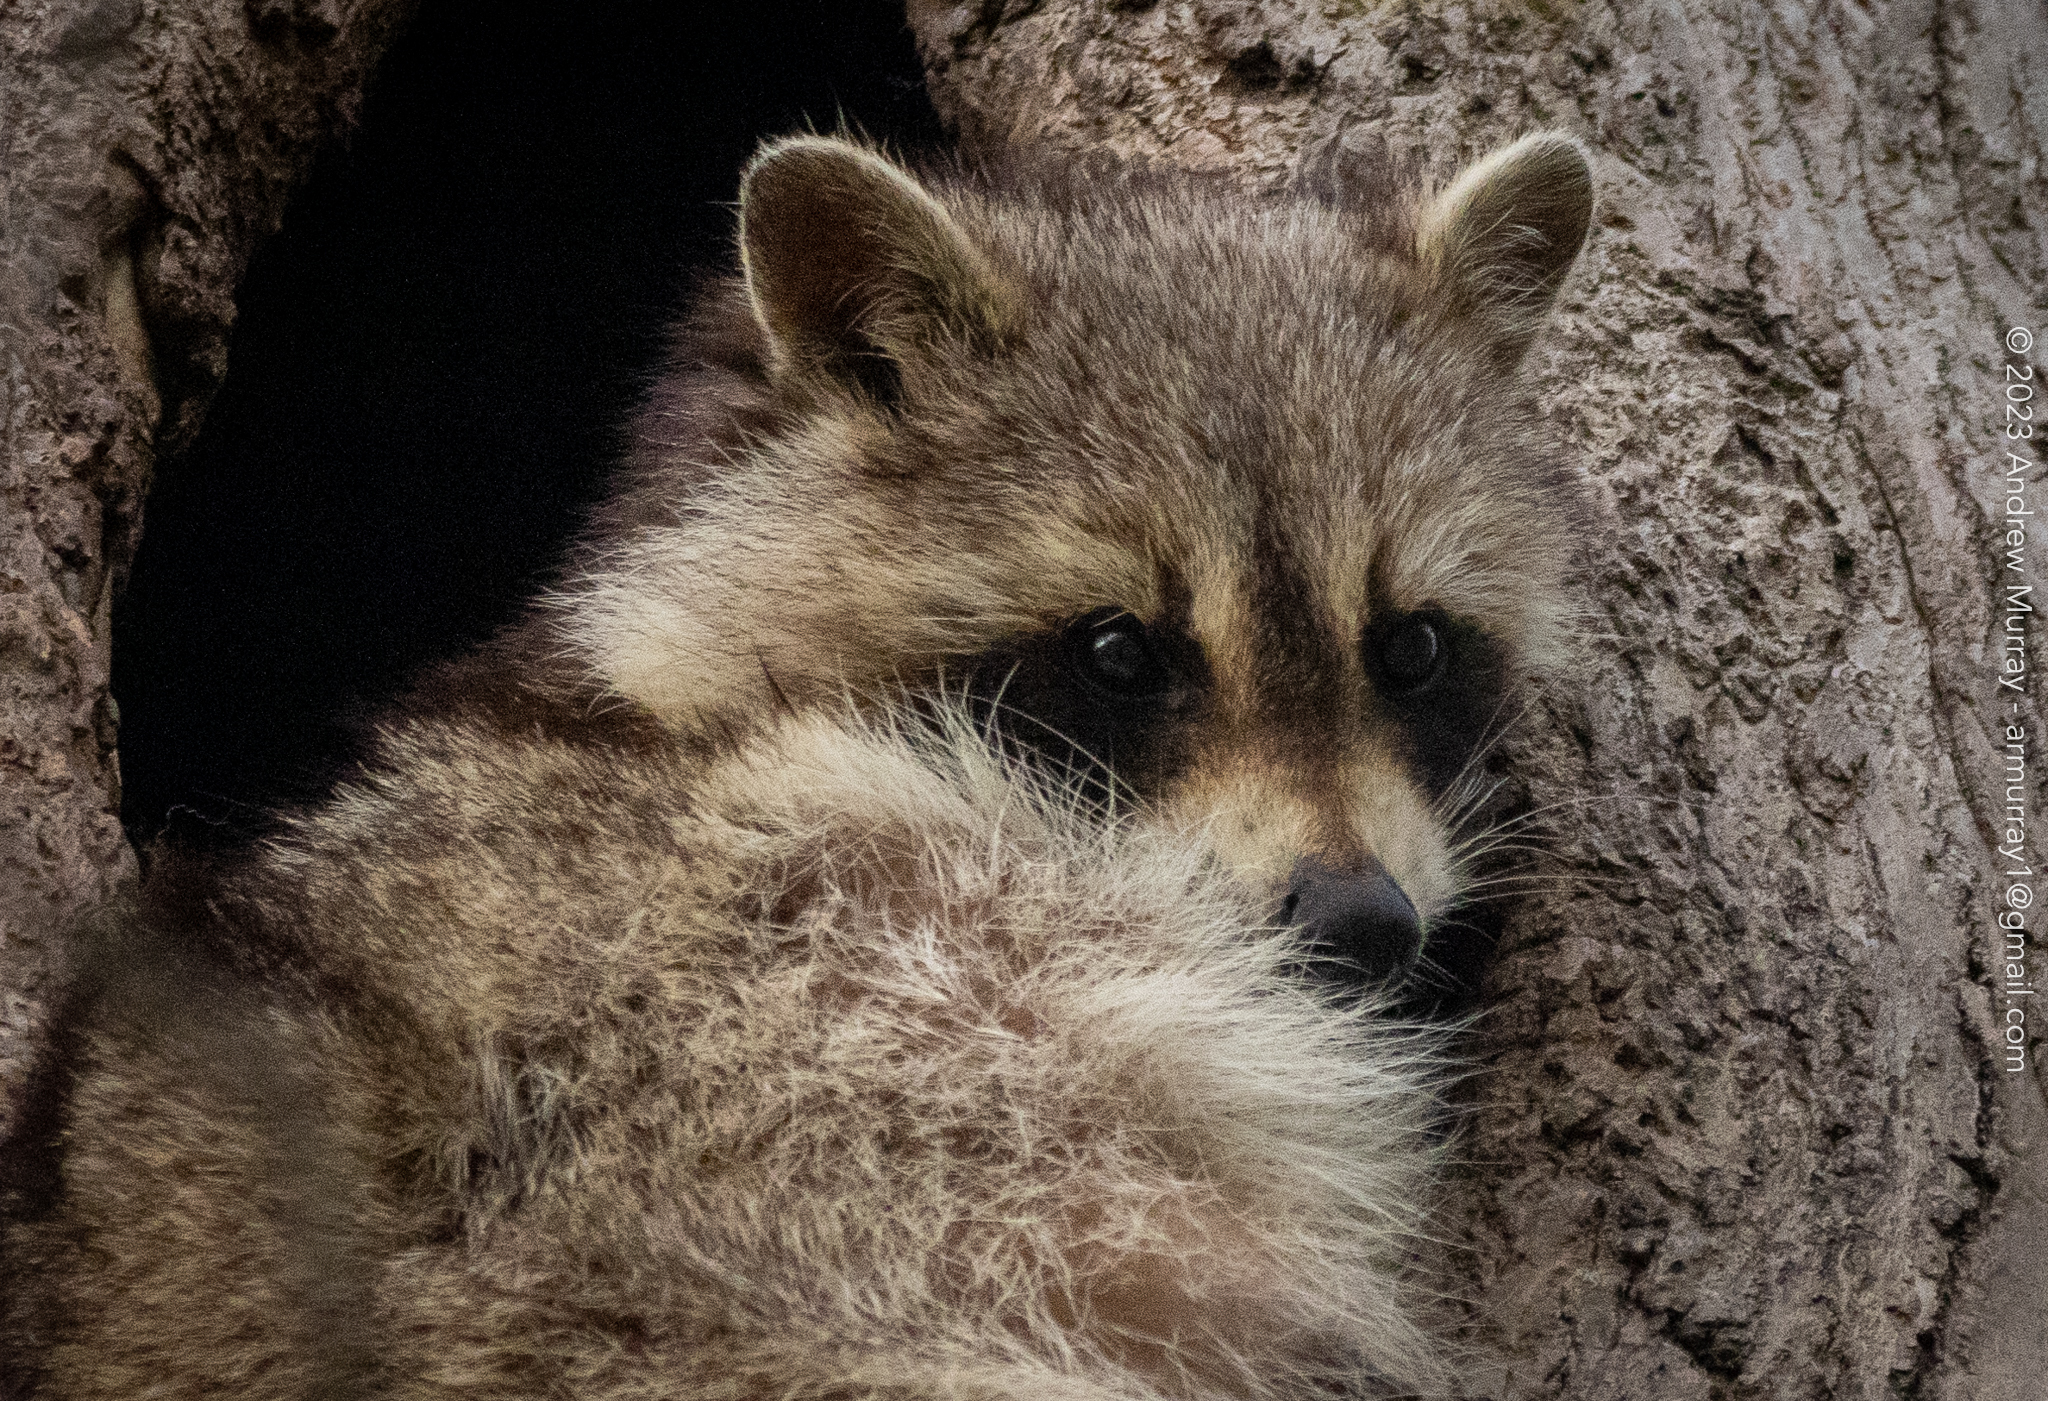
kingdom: Animalia
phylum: Chordata
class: Mammalia
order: Carnivora
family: Procyonidae
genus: Procyon
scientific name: Procyon lotor
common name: Raccoon
